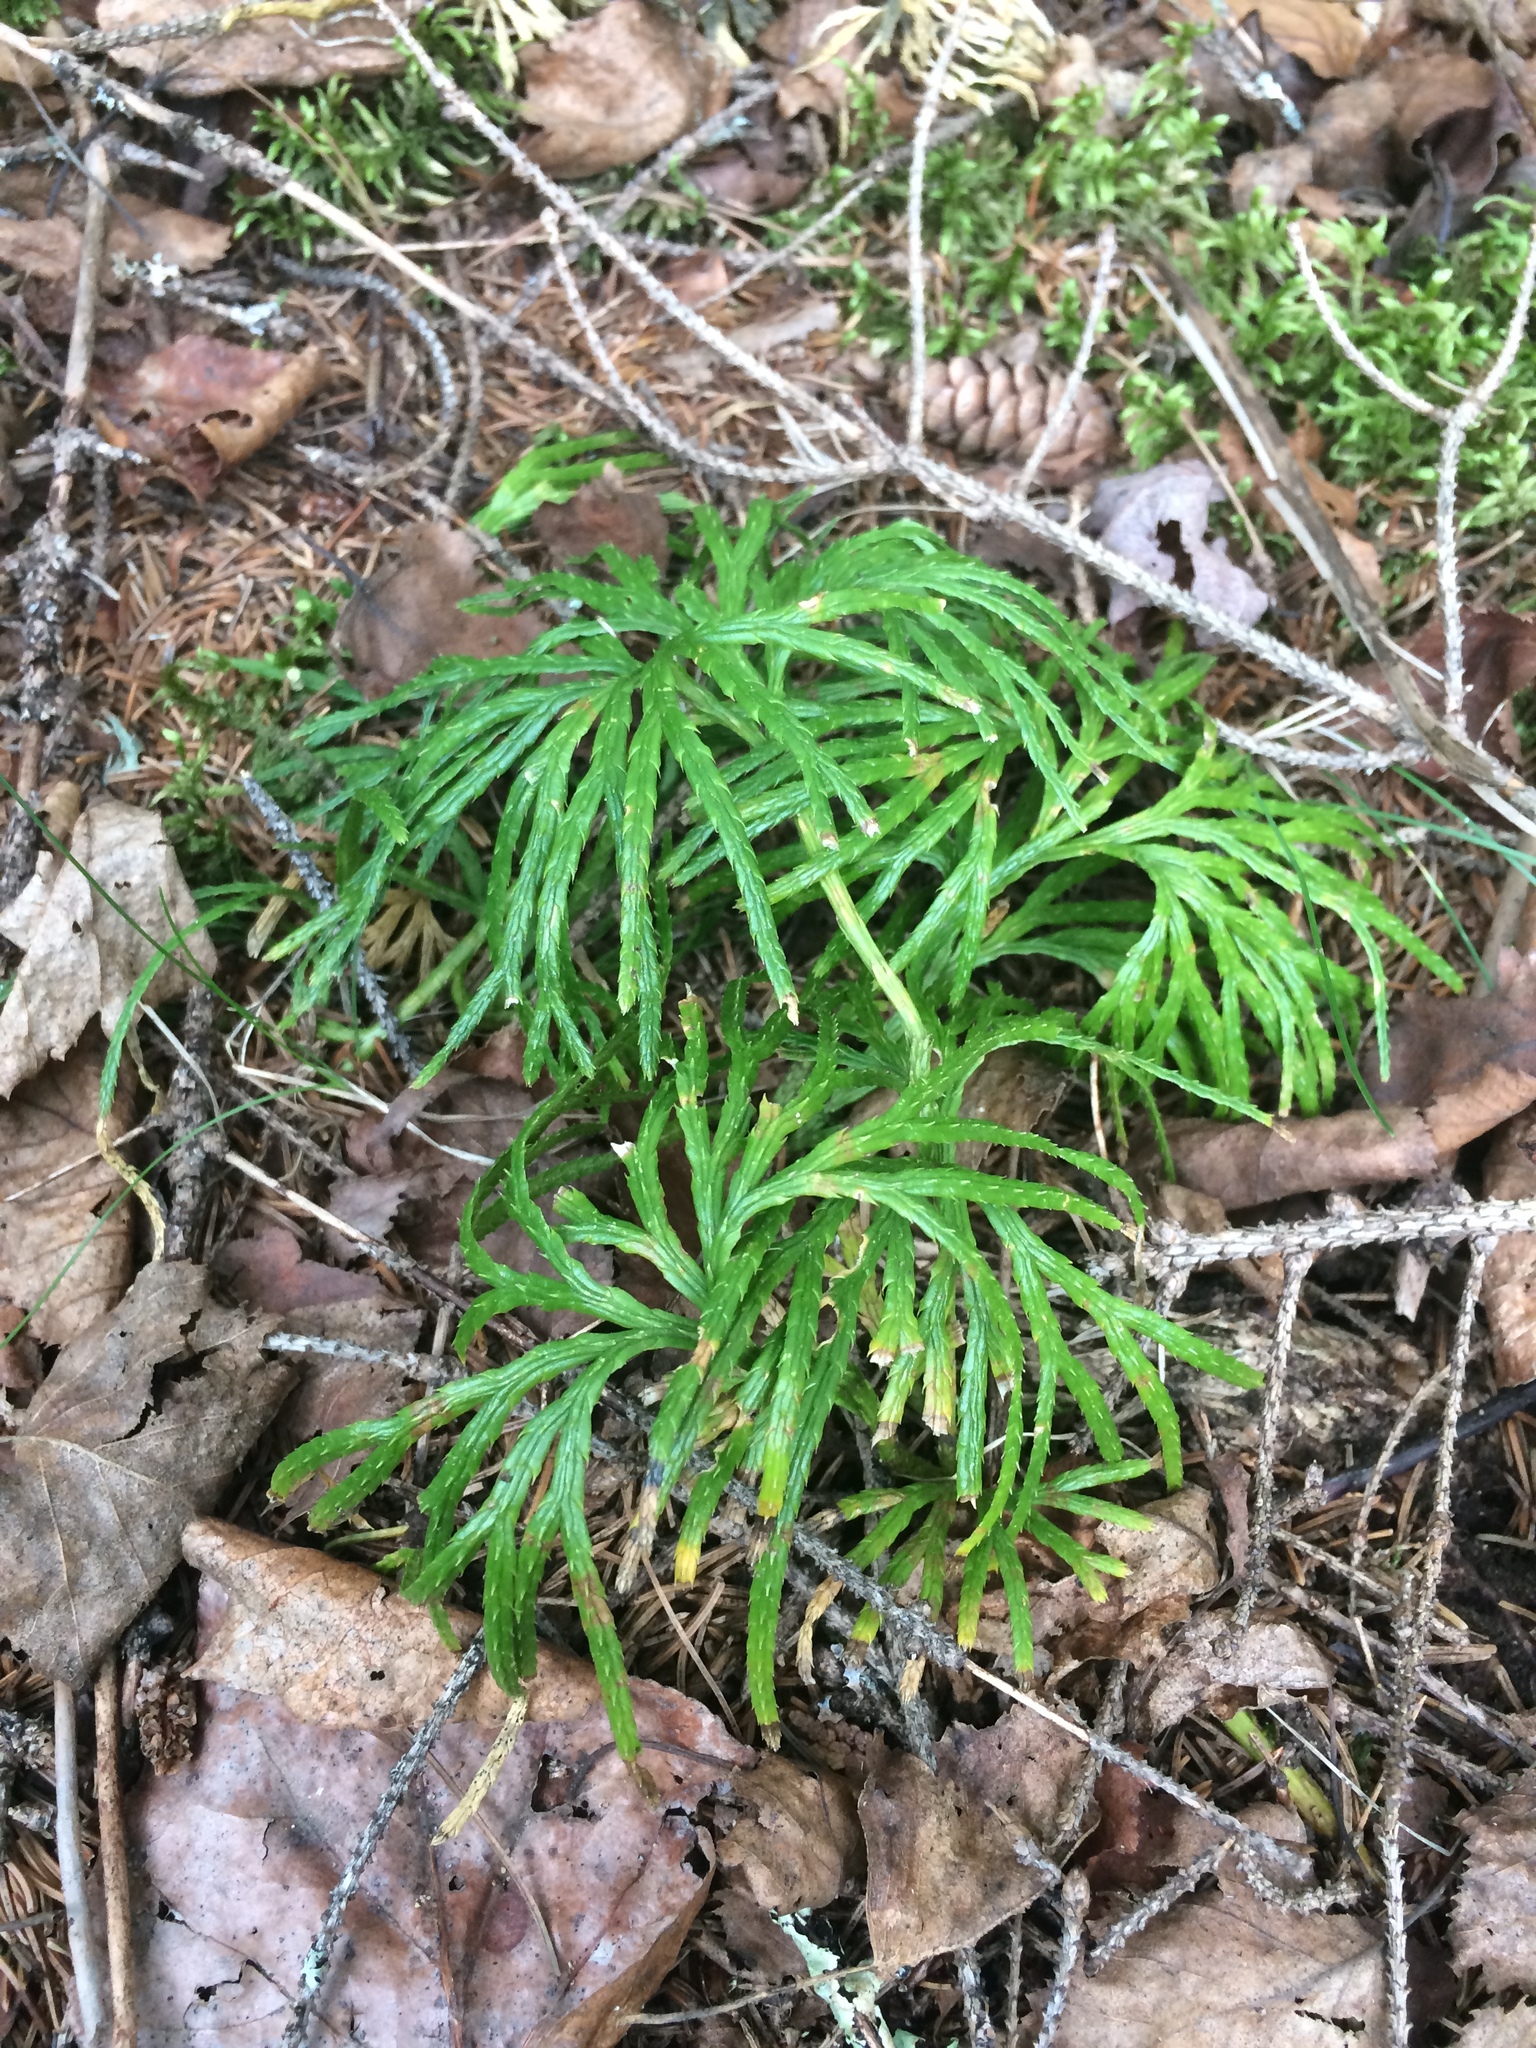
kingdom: Plantae
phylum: Tracheophyta
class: Lycopodiopsida
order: Lycopodiales
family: Lycopodiaceae
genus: Diphasiastrum
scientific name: Diphasiastrum digitatum
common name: Southern running-pine
